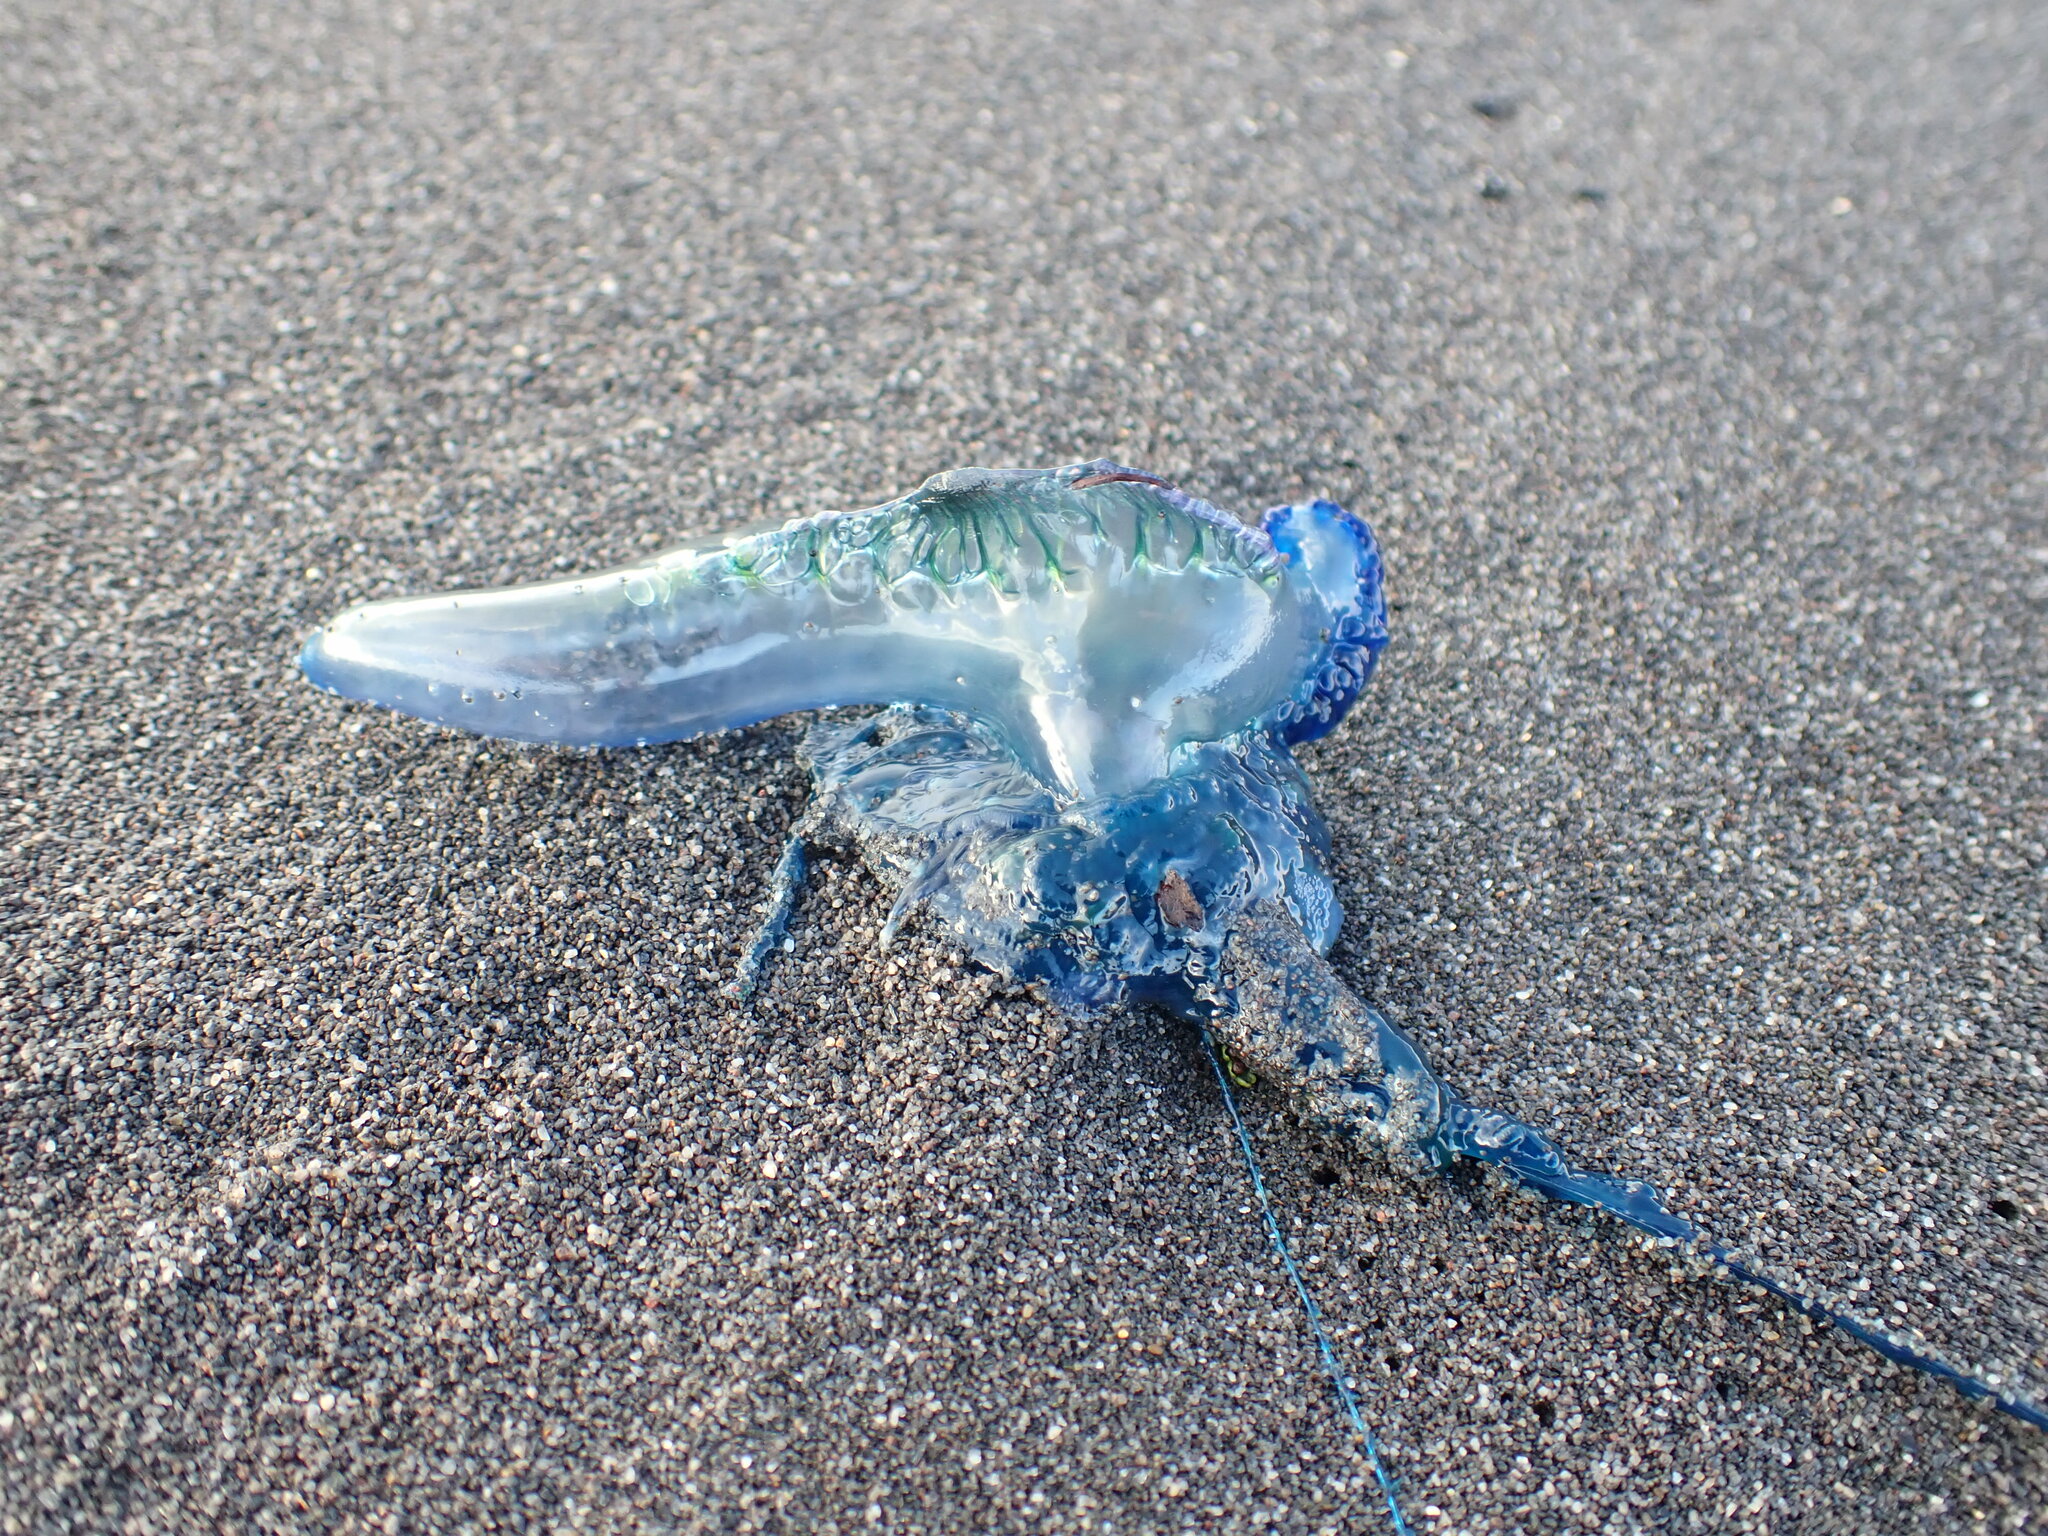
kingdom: Animalia
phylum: Cnidaria
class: Hydrozoa
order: Siphonophorae
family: Physaliidae
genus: Physalia
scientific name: Physalia physalis
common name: Portuguese man-of-war
